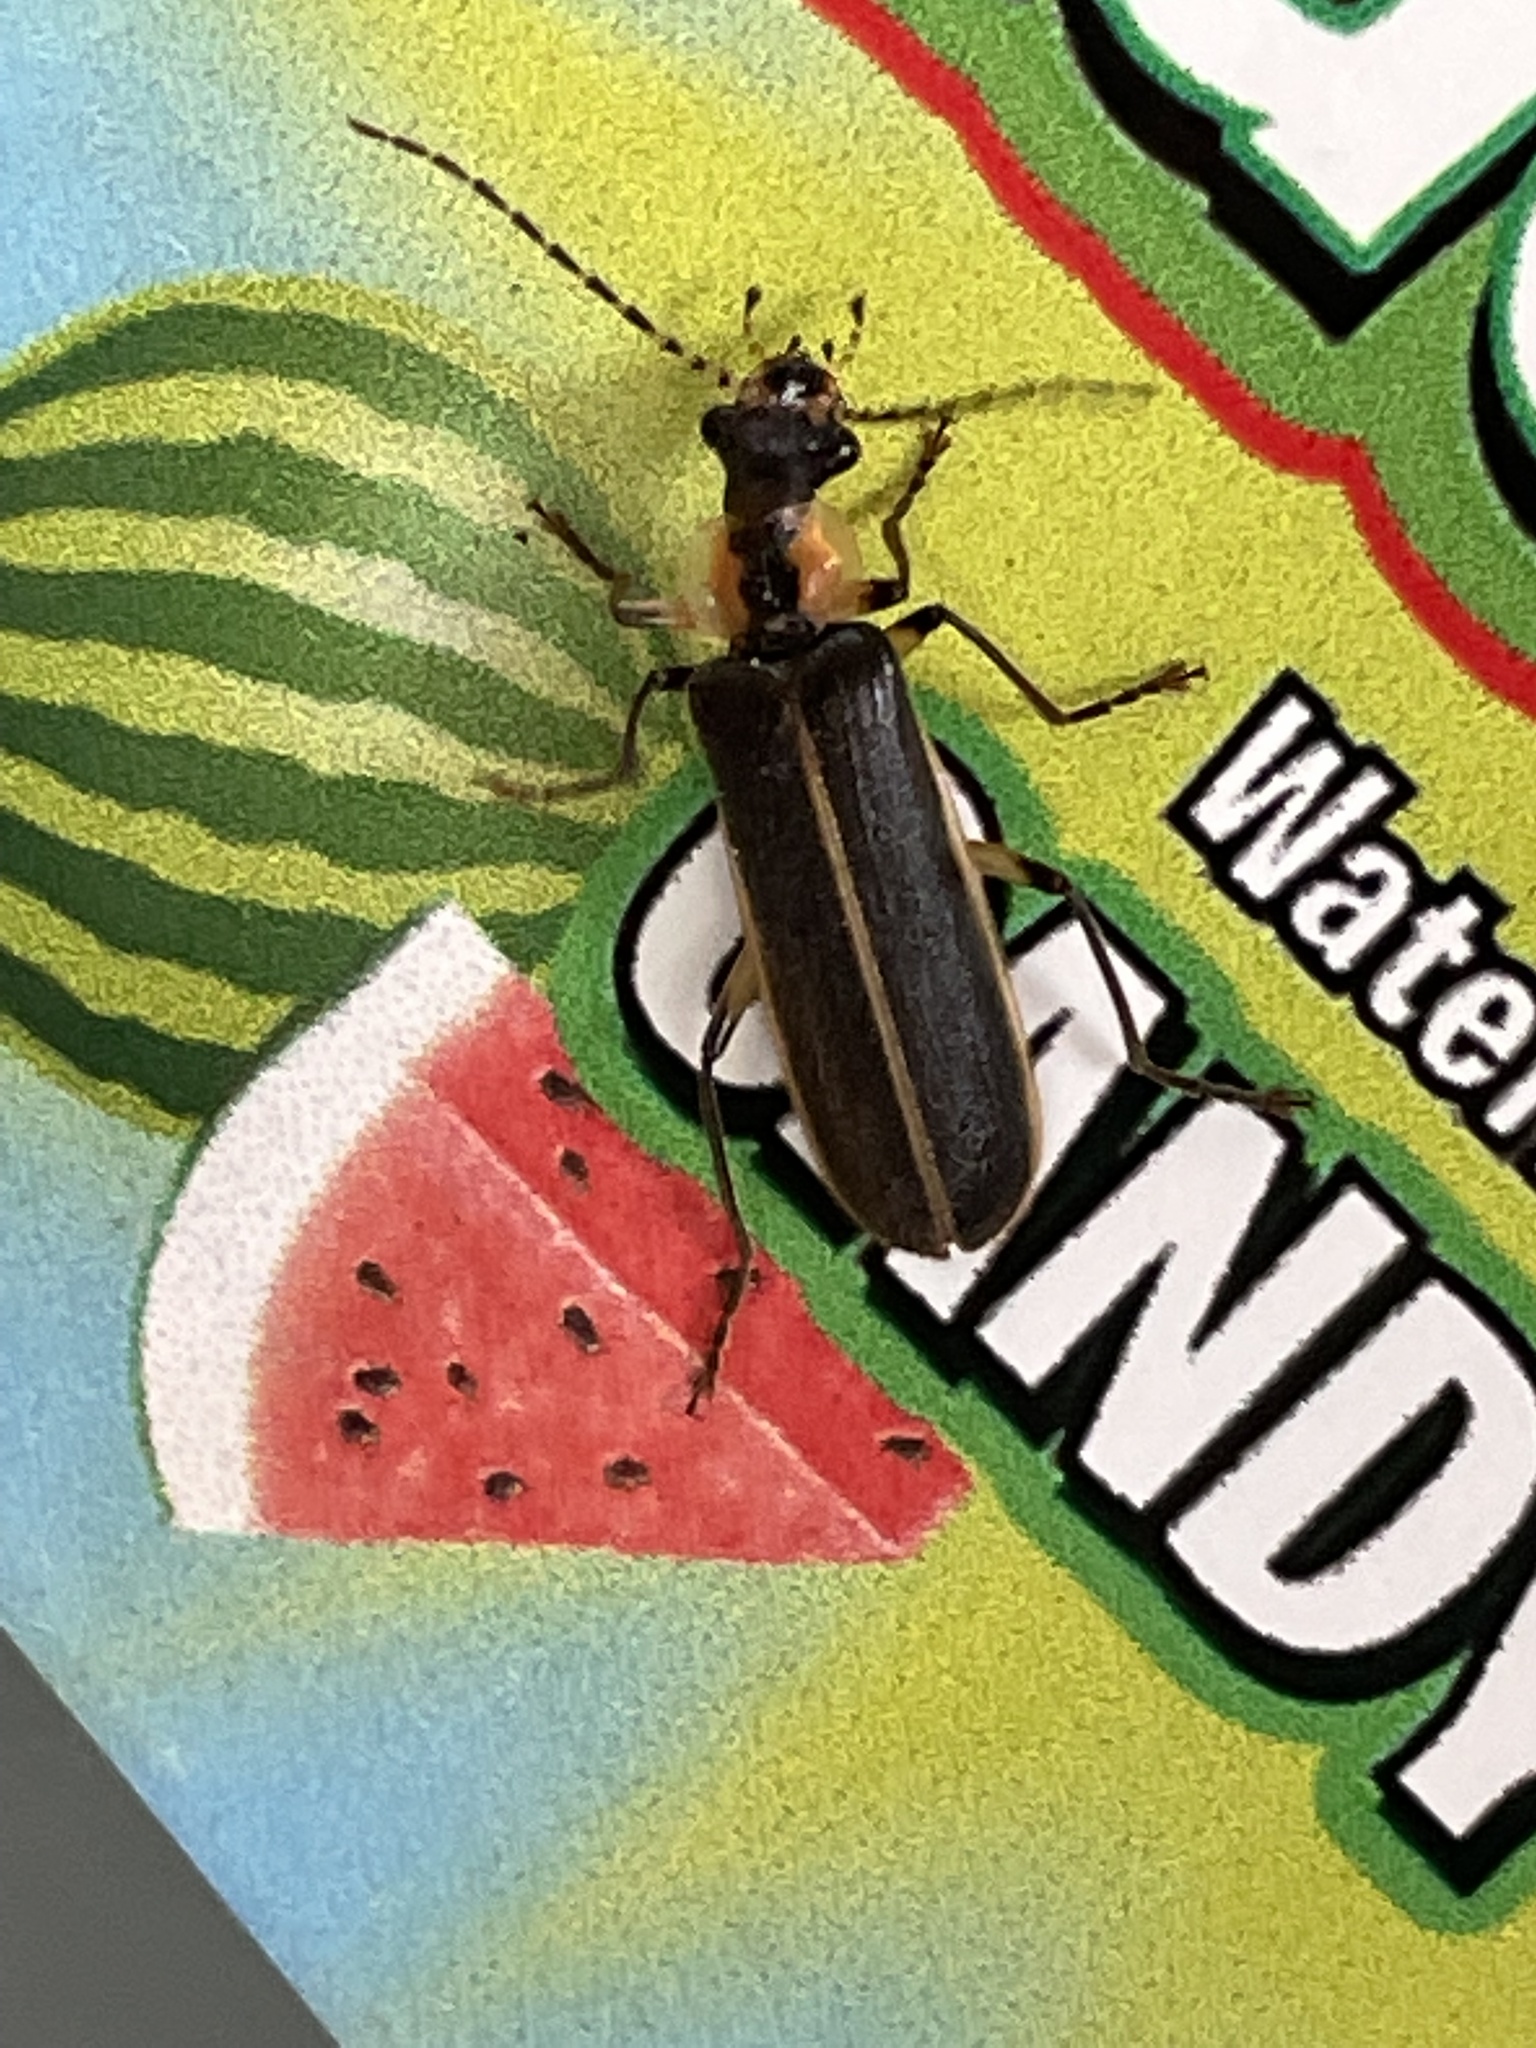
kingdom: Animalia
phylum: Arthropoda
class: Insecta
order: Coleoptera
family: Cantharidae
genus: Podabrus
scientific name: Podabrus basilaris
